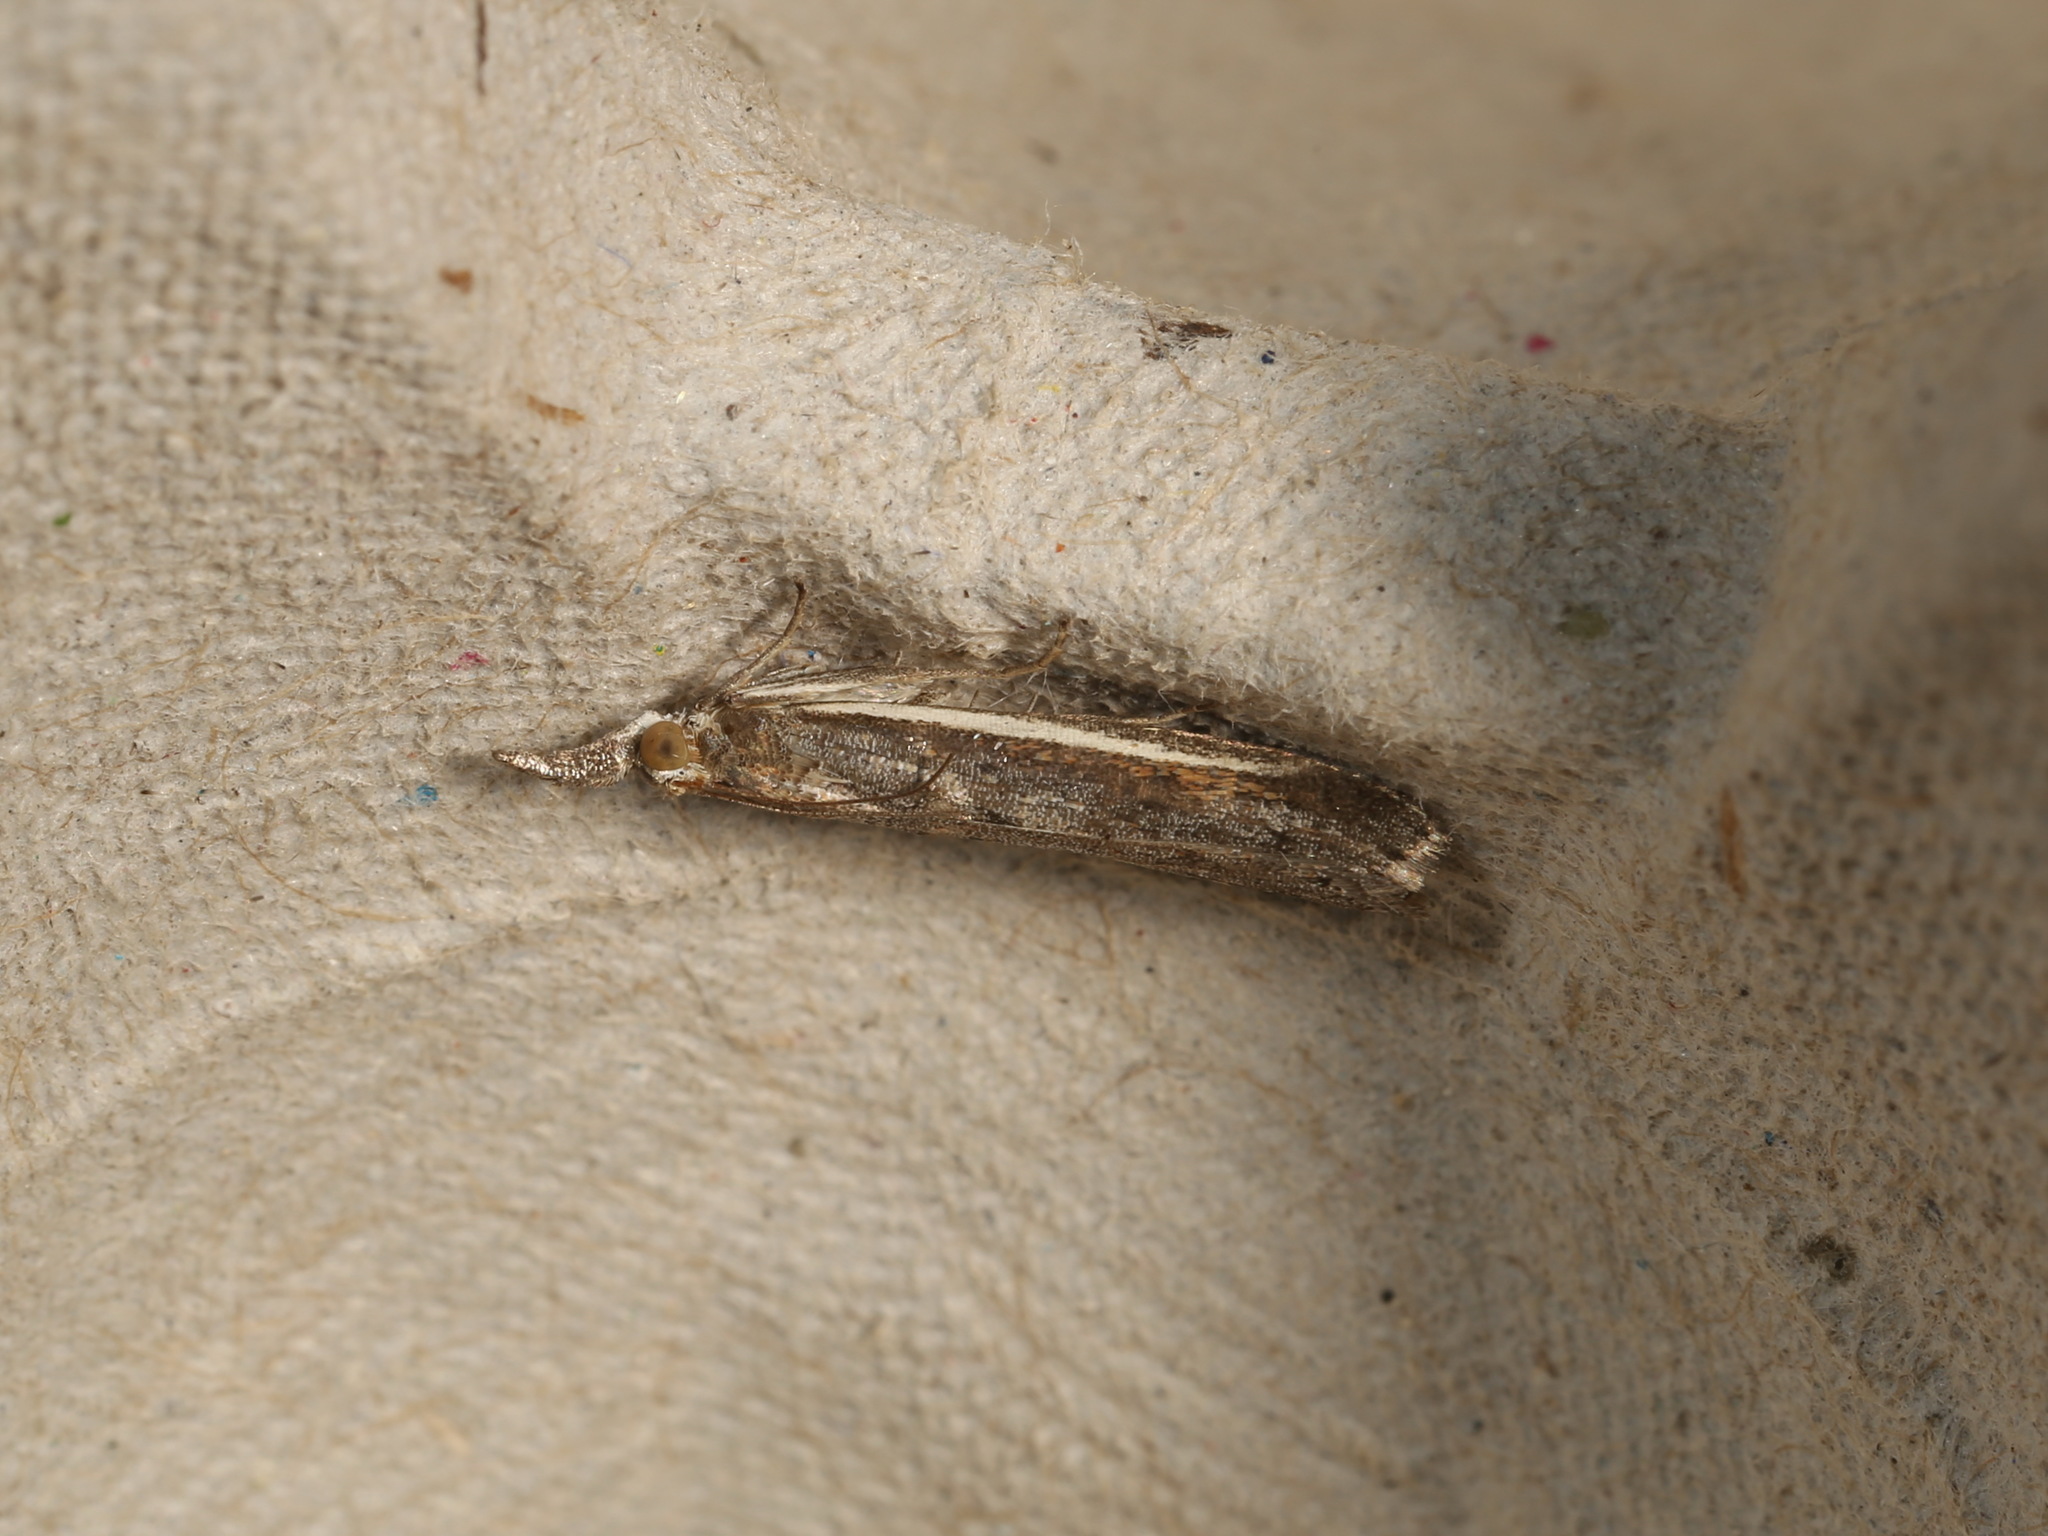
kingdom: Animalia
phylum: Arthropoda
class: Insecta
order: Lepidoptera
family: Pyralidae
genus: Etiella
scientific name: Etiella behrii
